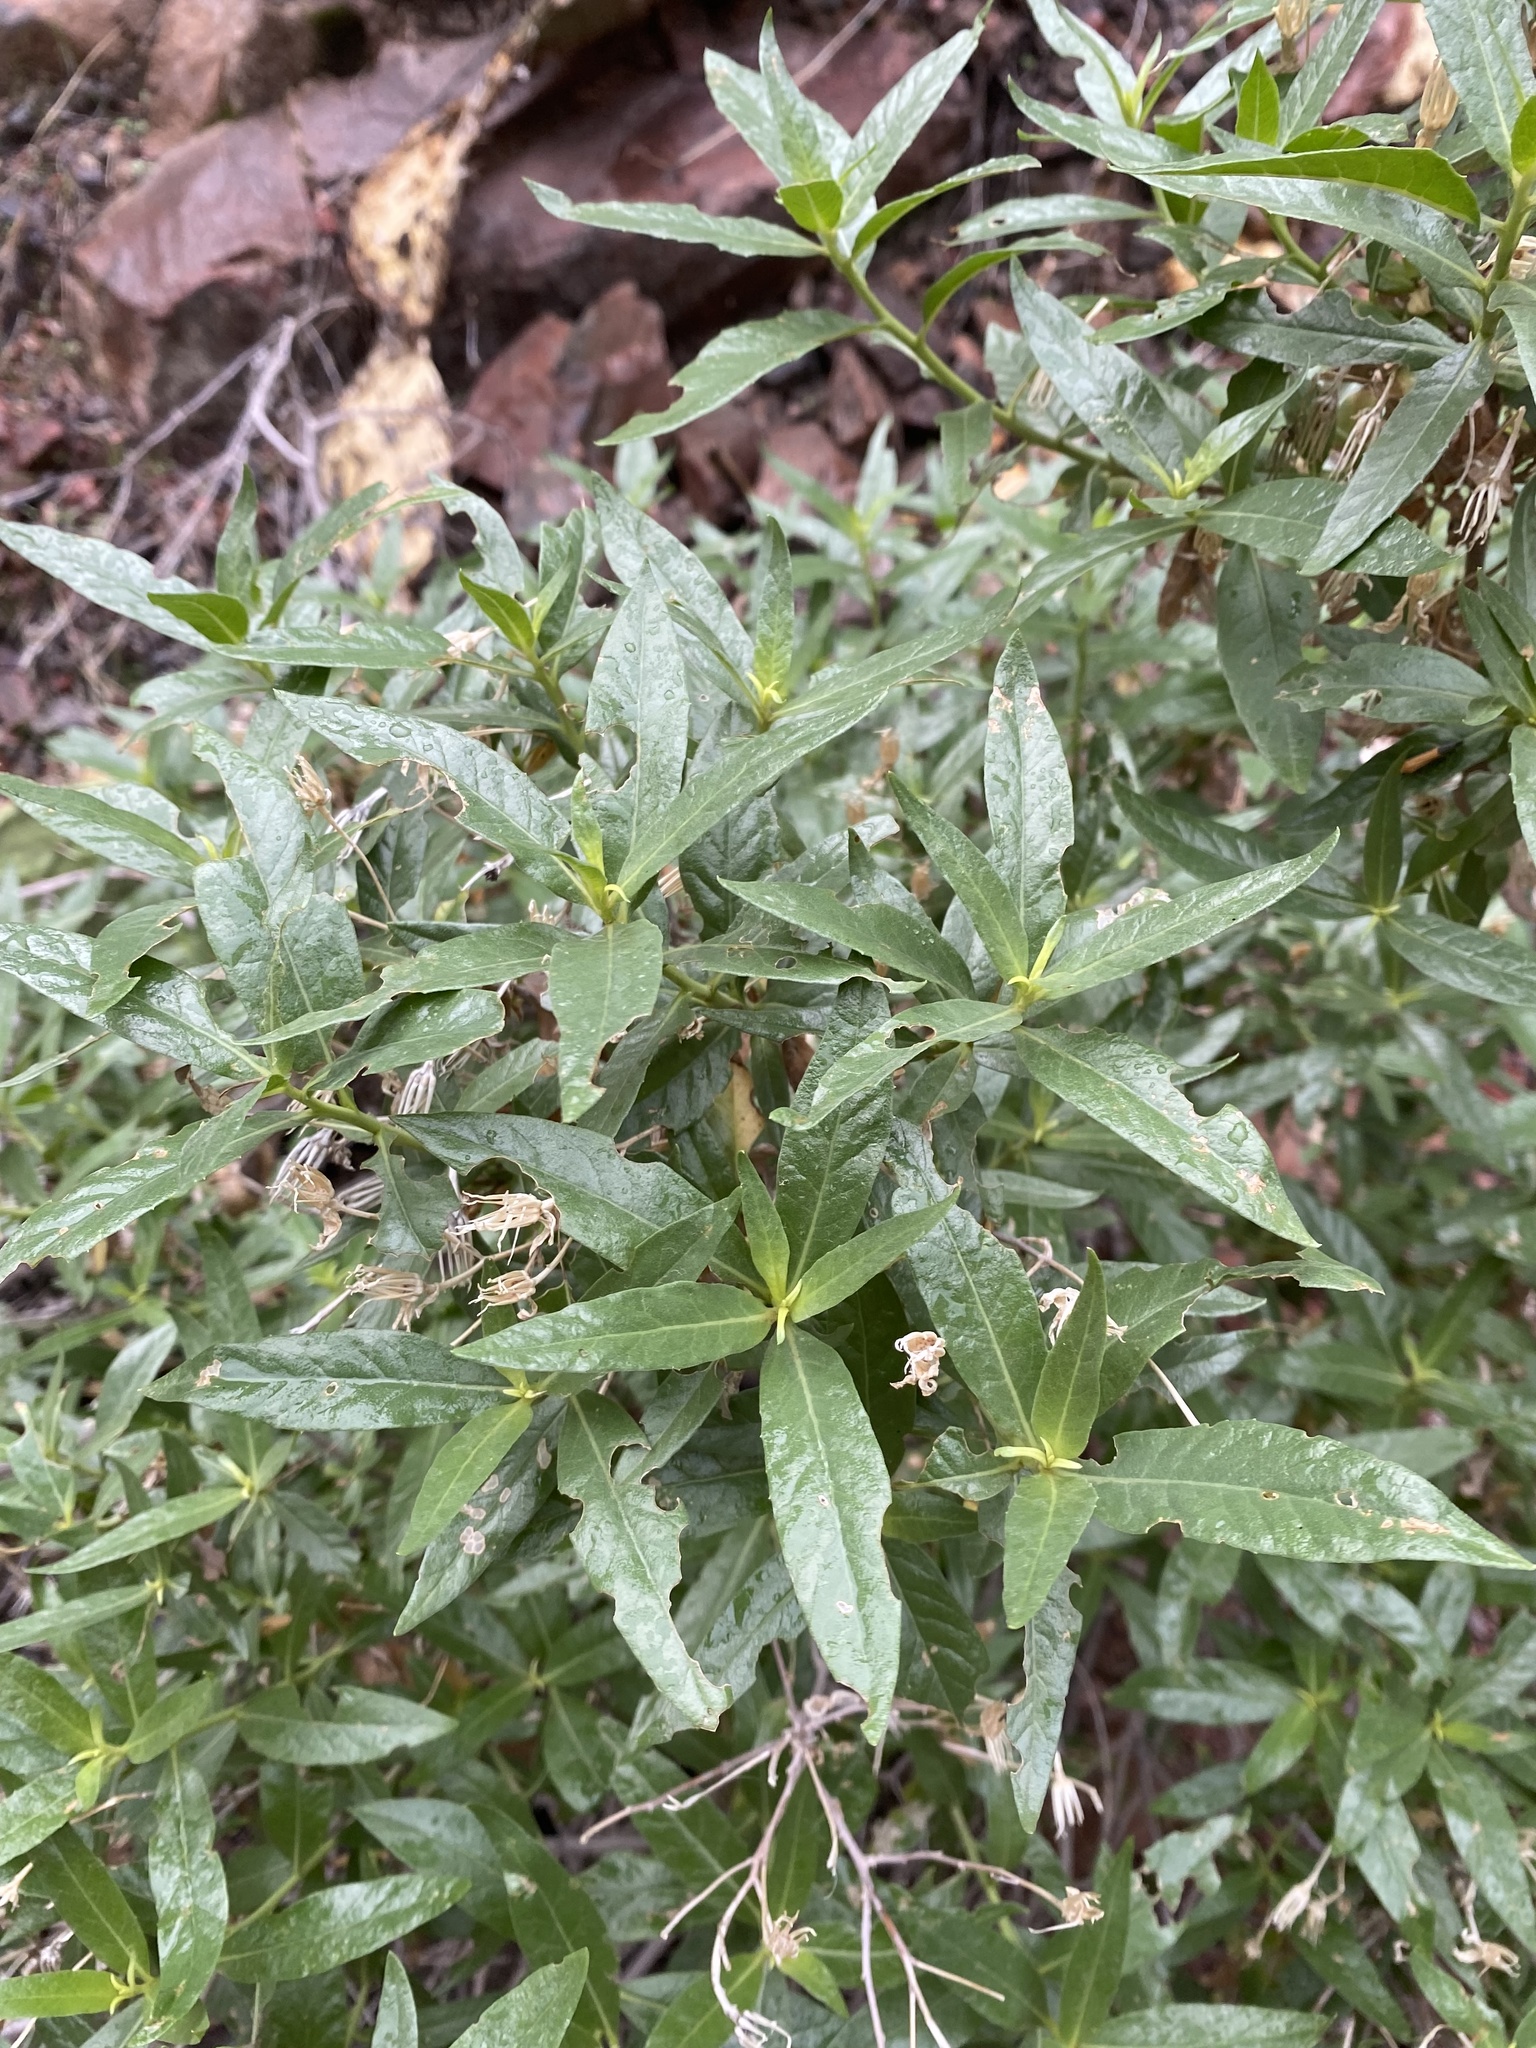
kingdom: Plantae
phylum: Tracheophyta
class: Magnoliopsida
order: Asterales
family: Asteraceae
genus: Trixis
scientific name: Trixis californica
